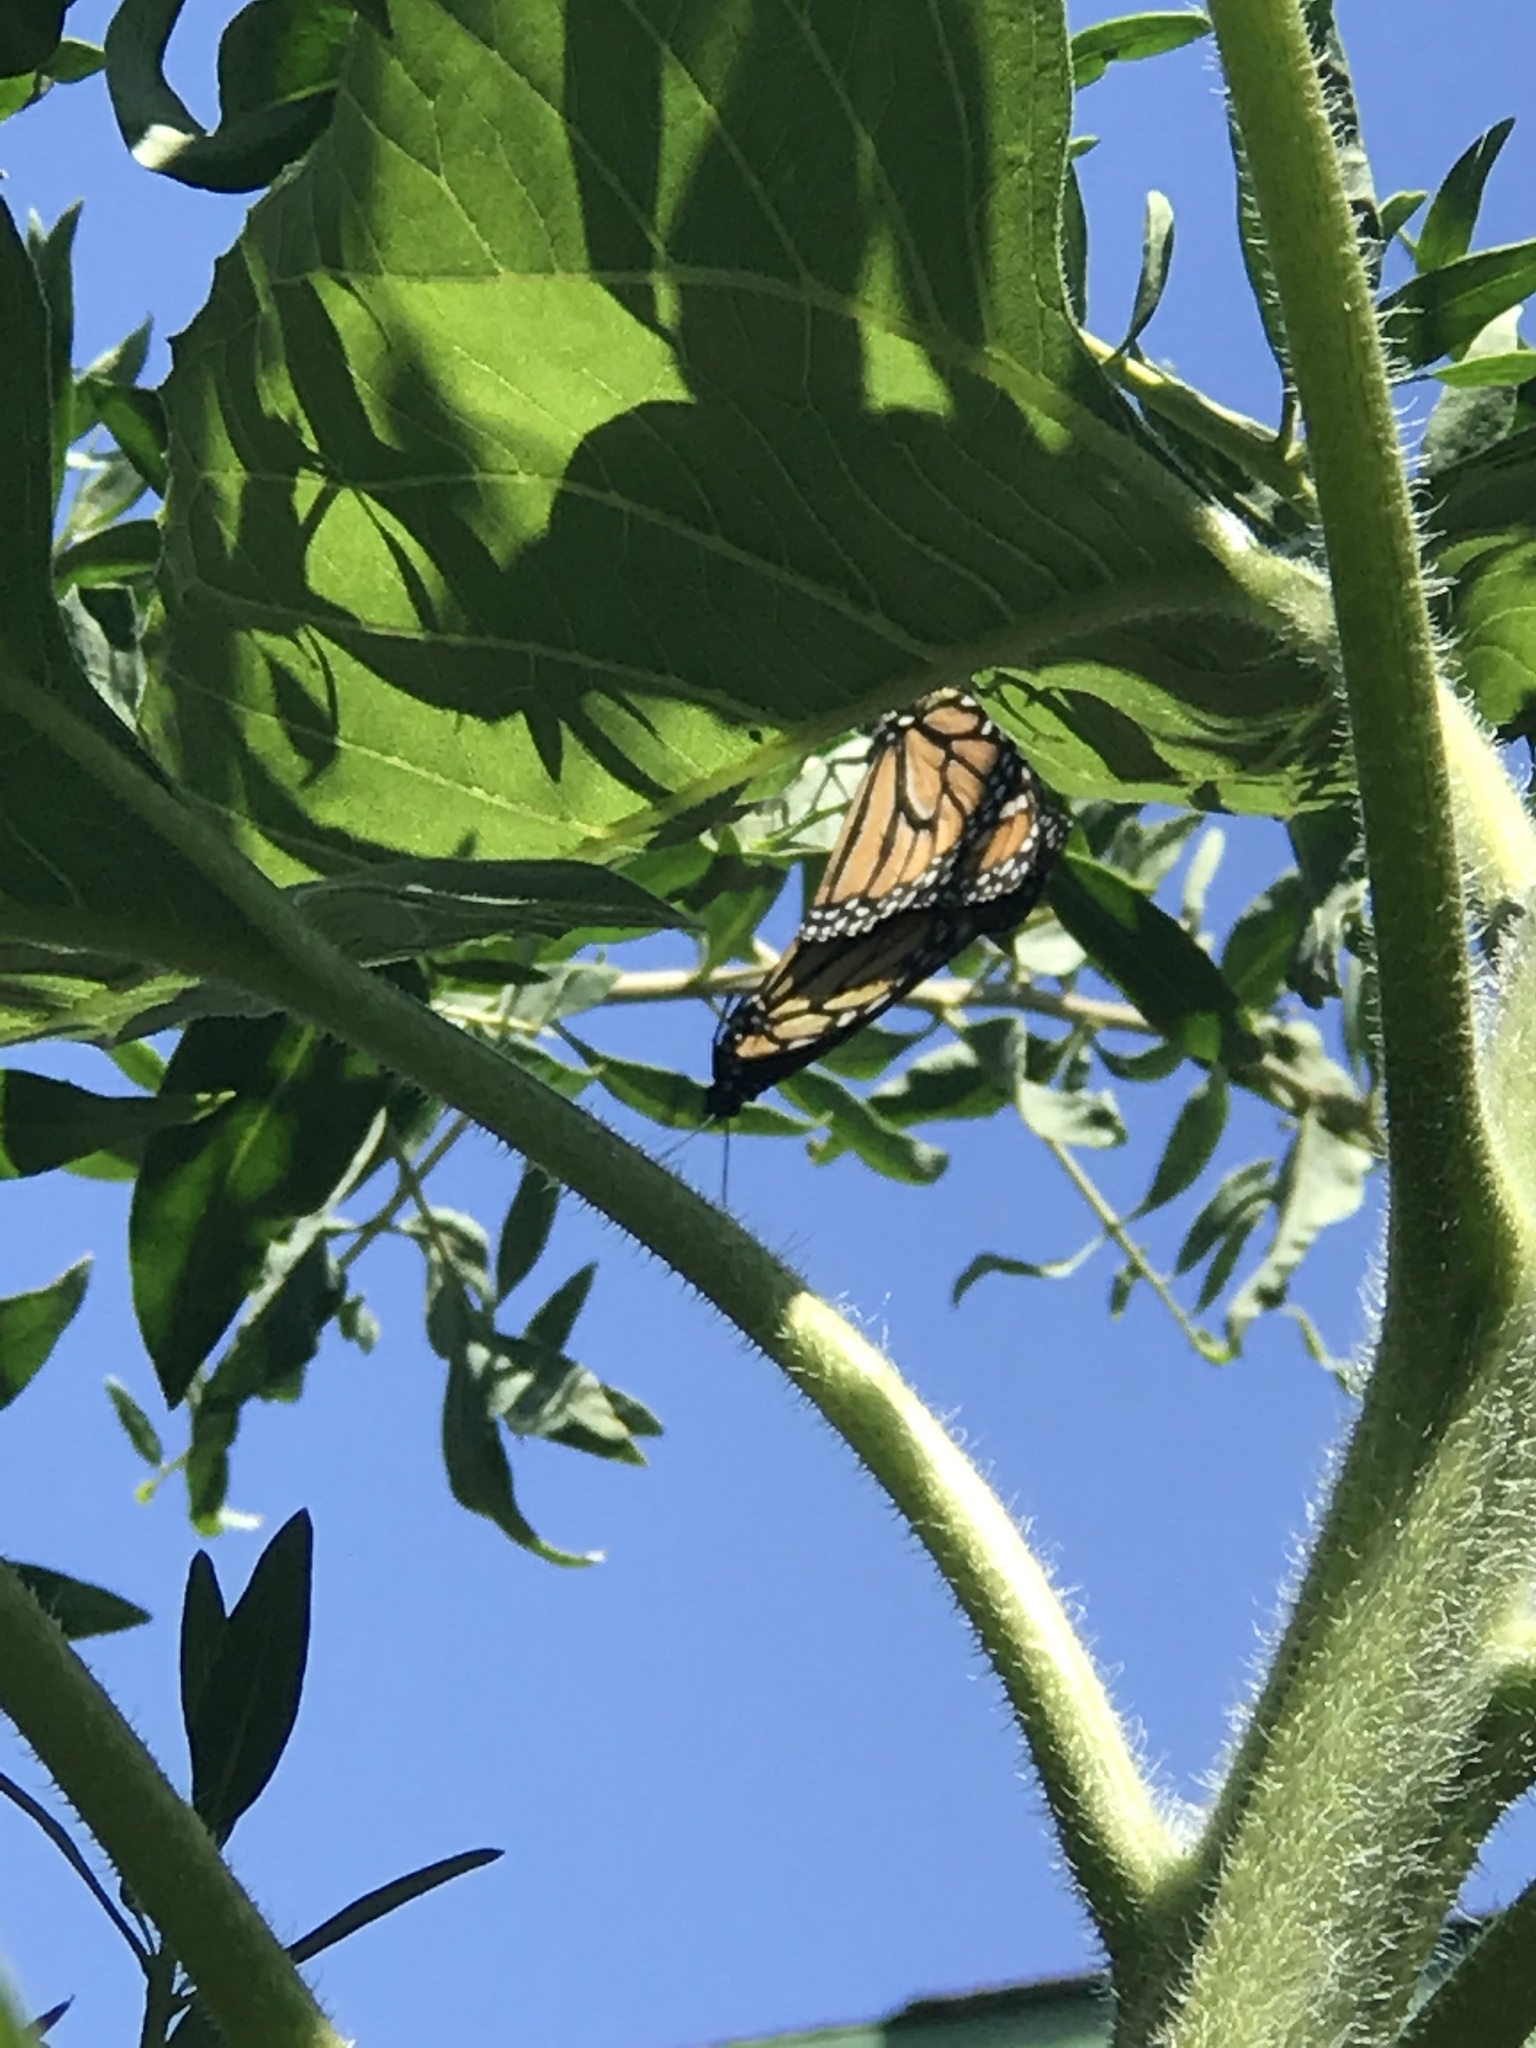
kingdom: Animalia
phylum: Arthropoda
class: Insecta
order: Lepidoptera
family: Nymphalidae
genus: Danaus
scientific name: Danaus plexippus
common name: Monarch
